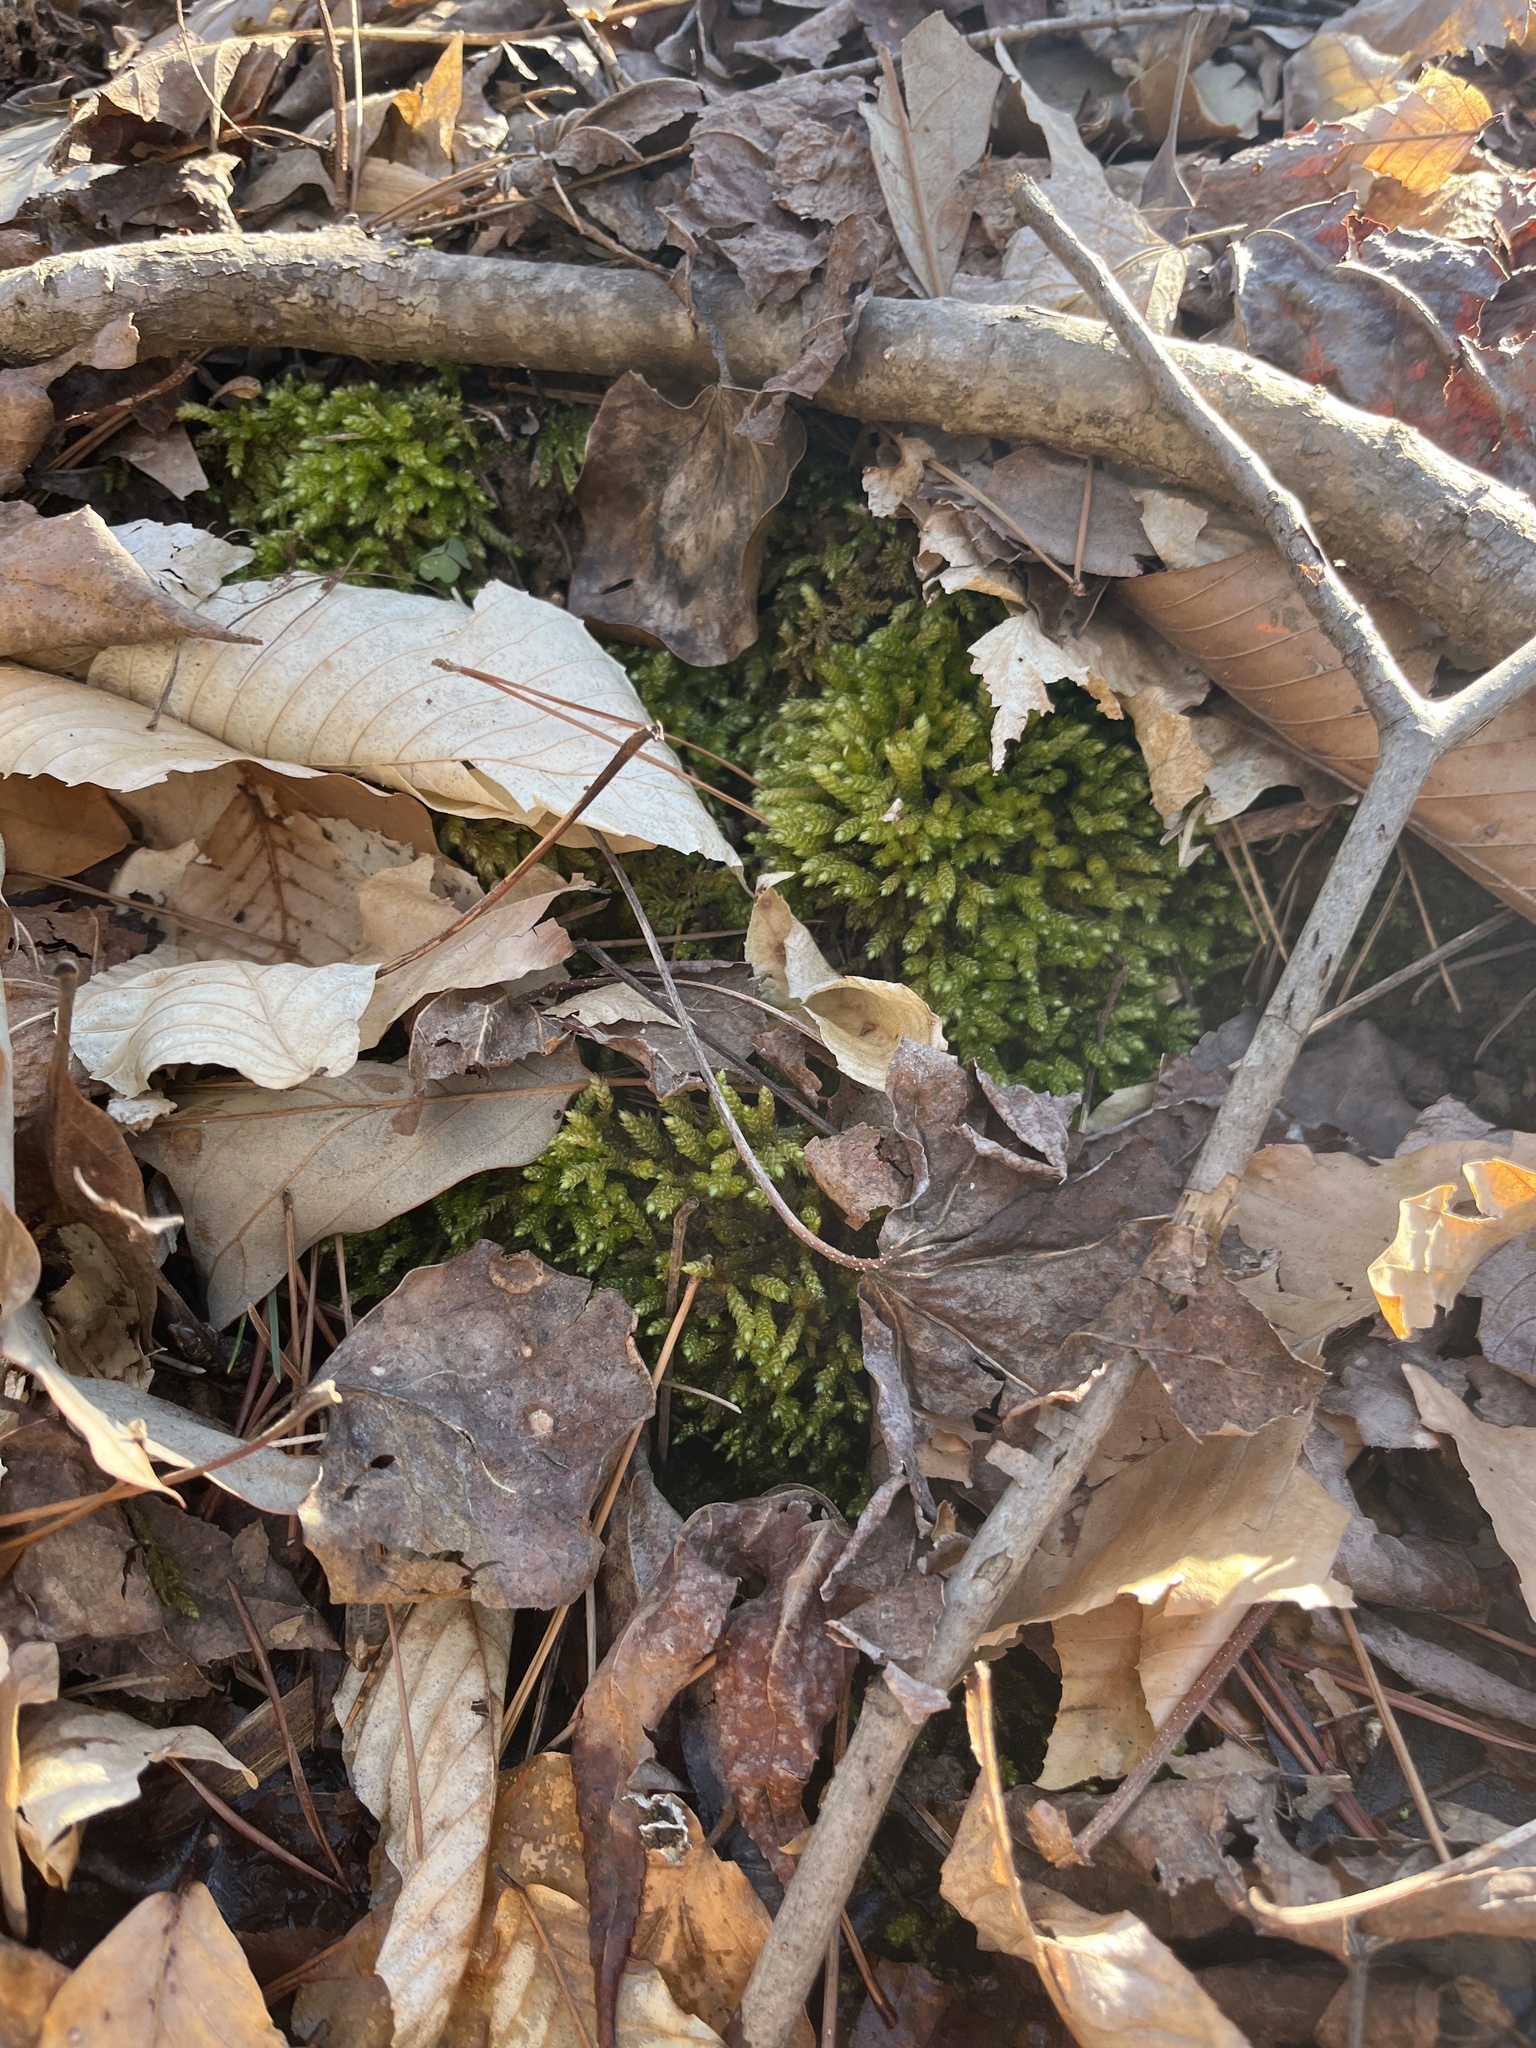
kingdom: Plantae
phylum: Bryophyta
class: Bryopsida
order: Hypnales
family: Brachytheciaceae
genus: Bryoandersonia
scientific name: Bryoandersonia illecebra
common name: Spoon-leaved moss
